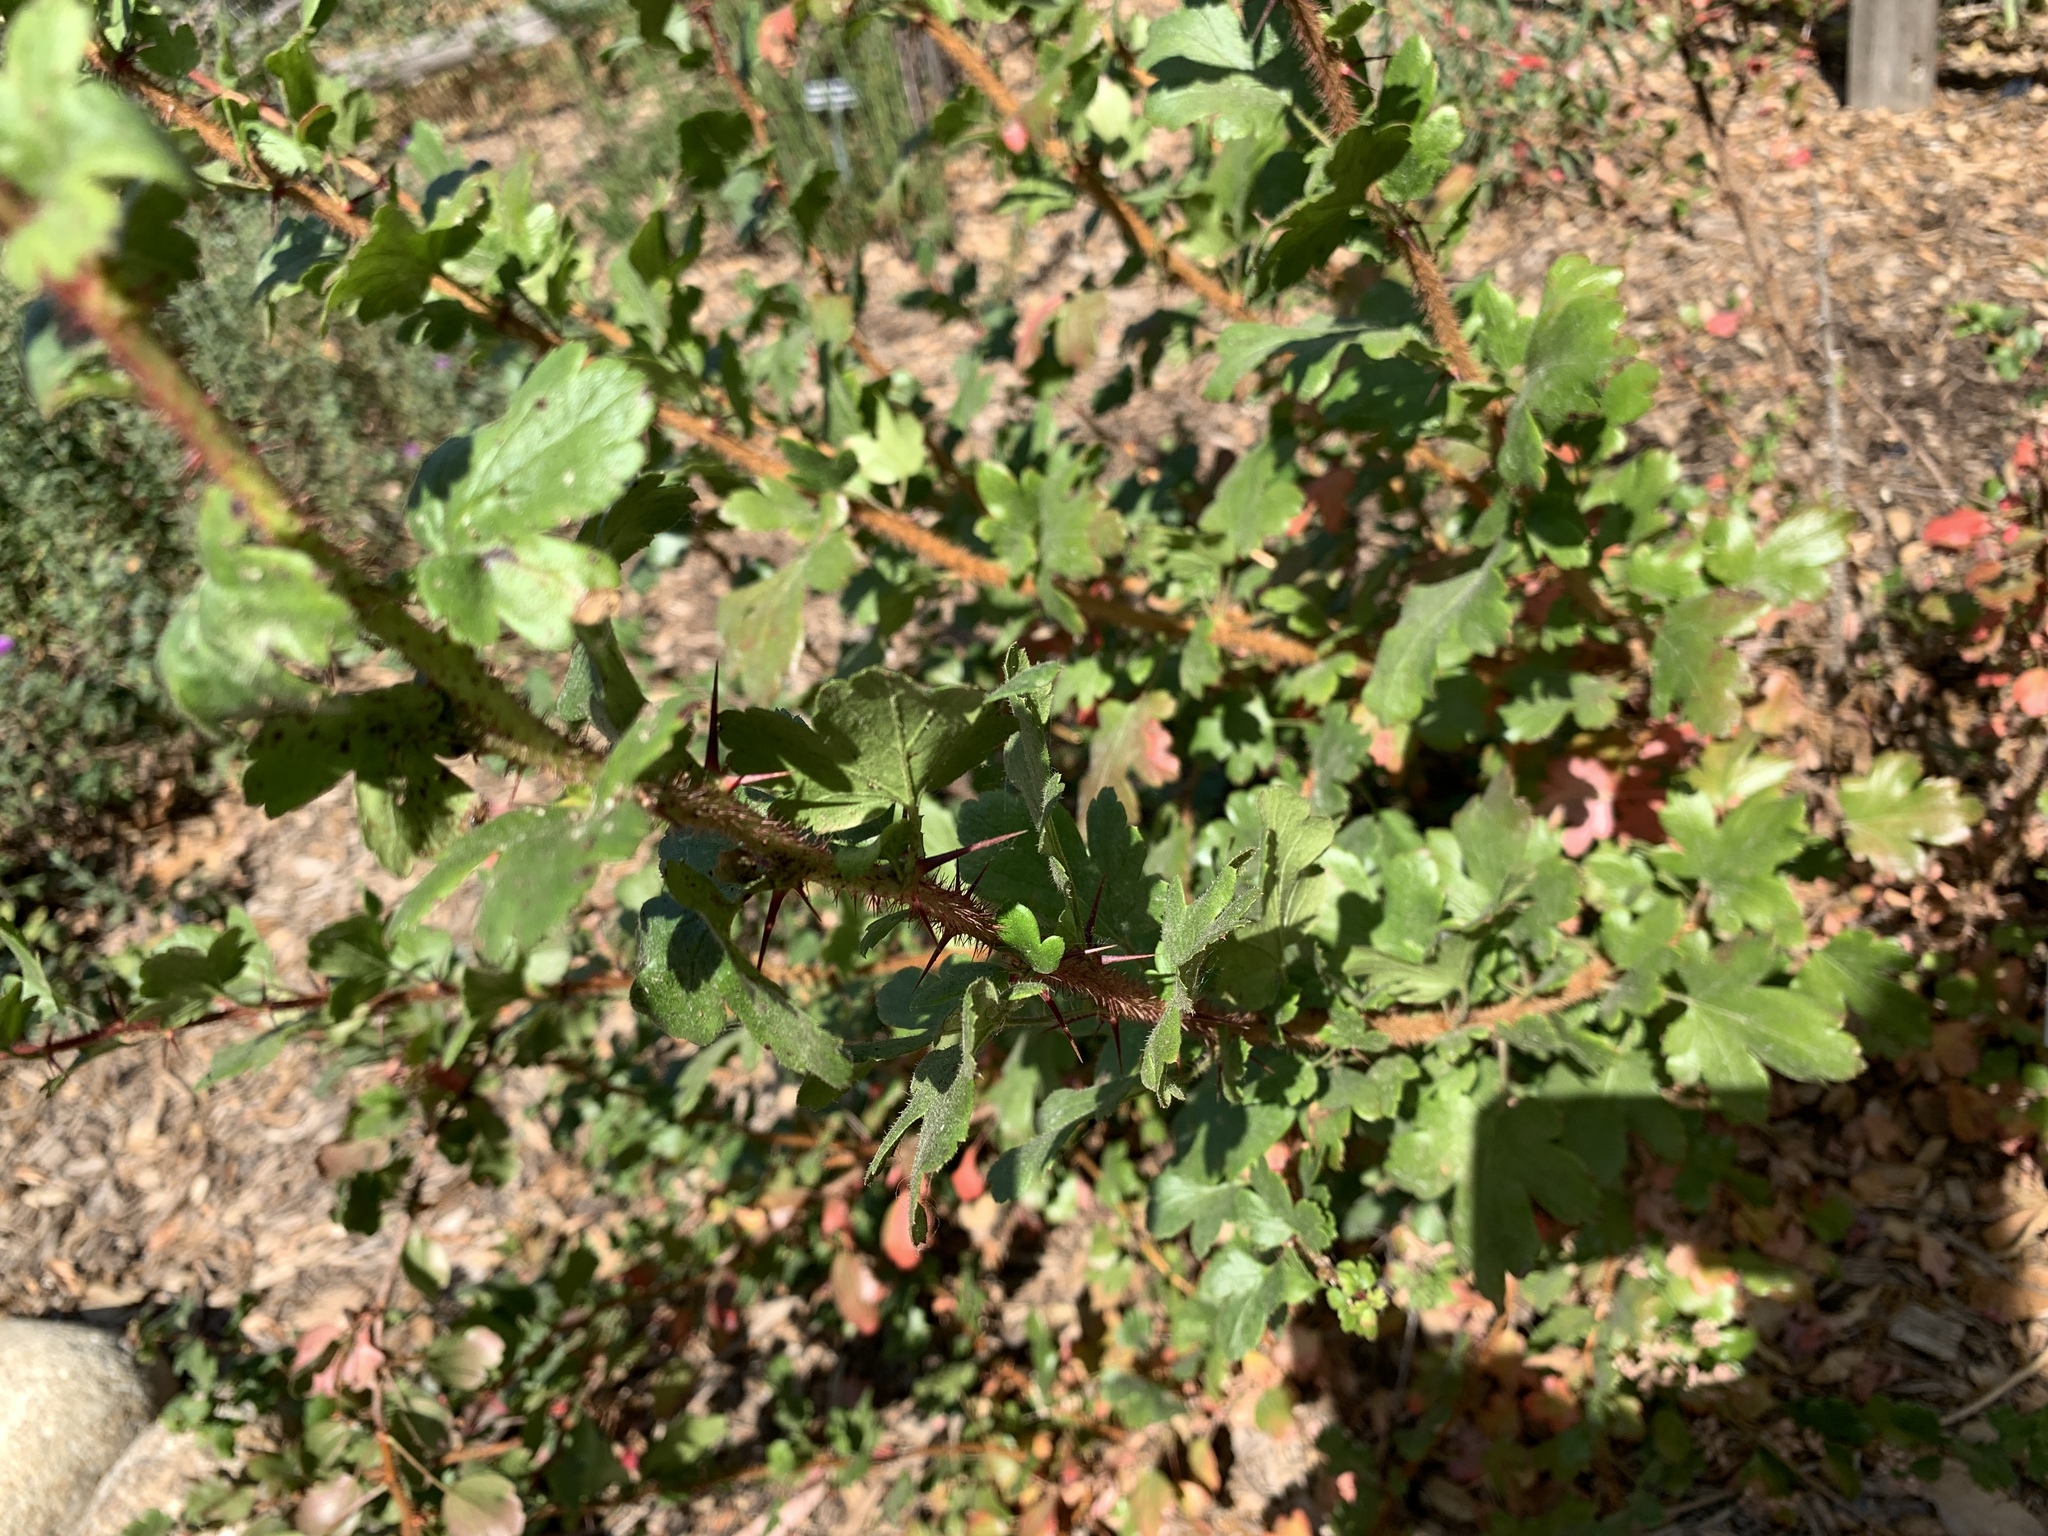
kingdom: Plantae
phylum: Tracheophyta
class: Magnoliopsida
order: Saxifragales
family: Grossulariaceae
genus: Ribes
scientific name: Ribes speciosum
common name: Fuchsia-flower gooseberry
